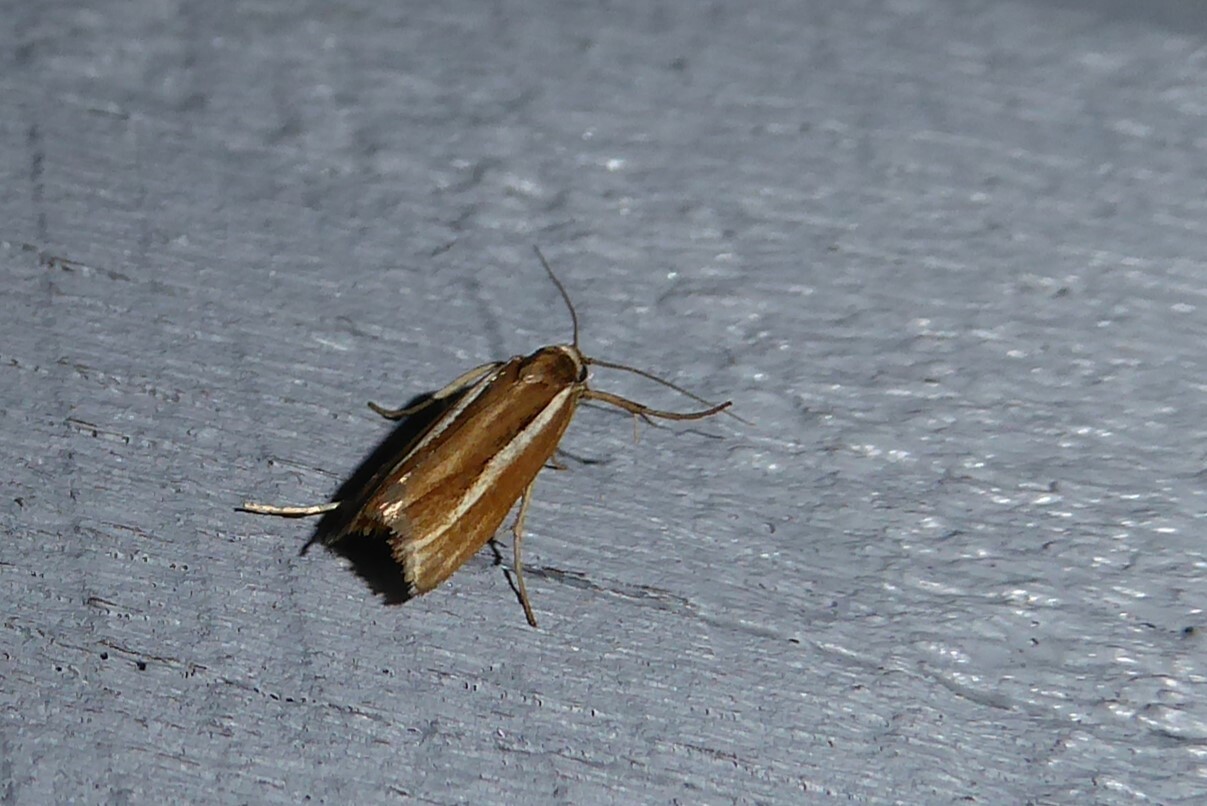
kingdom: Animalia
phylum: Arthropoda
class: Insecta
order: Lepidoptera
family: Crambidae
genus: Orocrambus
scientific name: Orocrambus melitastes
